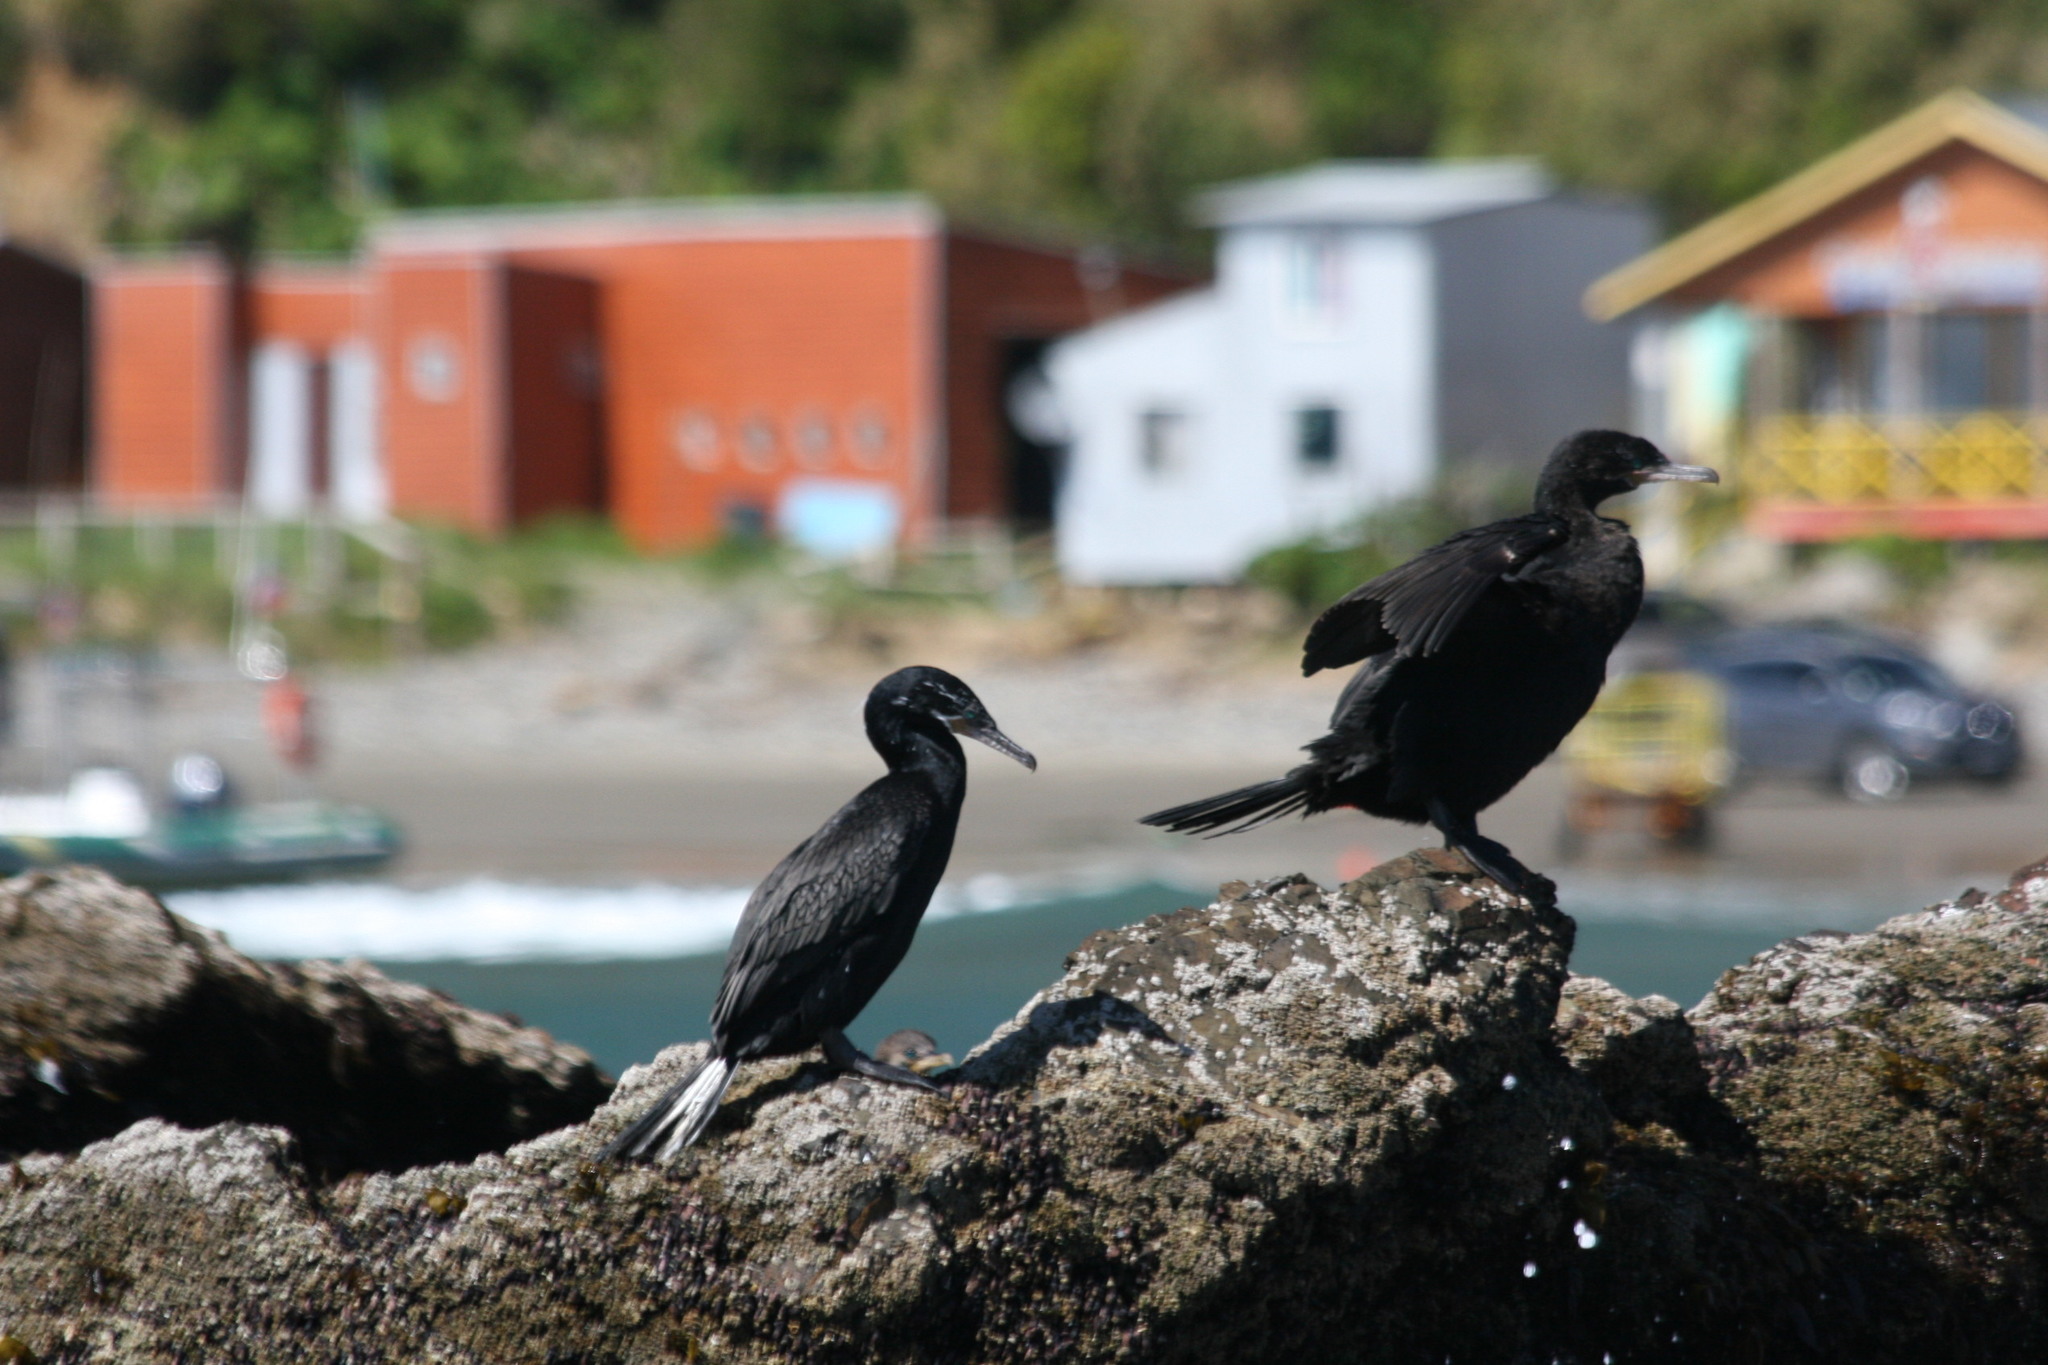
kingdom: Animalia
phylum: Chordata
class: Aves
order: Suliformes
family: Phalacrocoracidae
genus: Phalacrocorax
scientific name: Phalacrocorax brasilianus
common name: Neotropic cormorant
